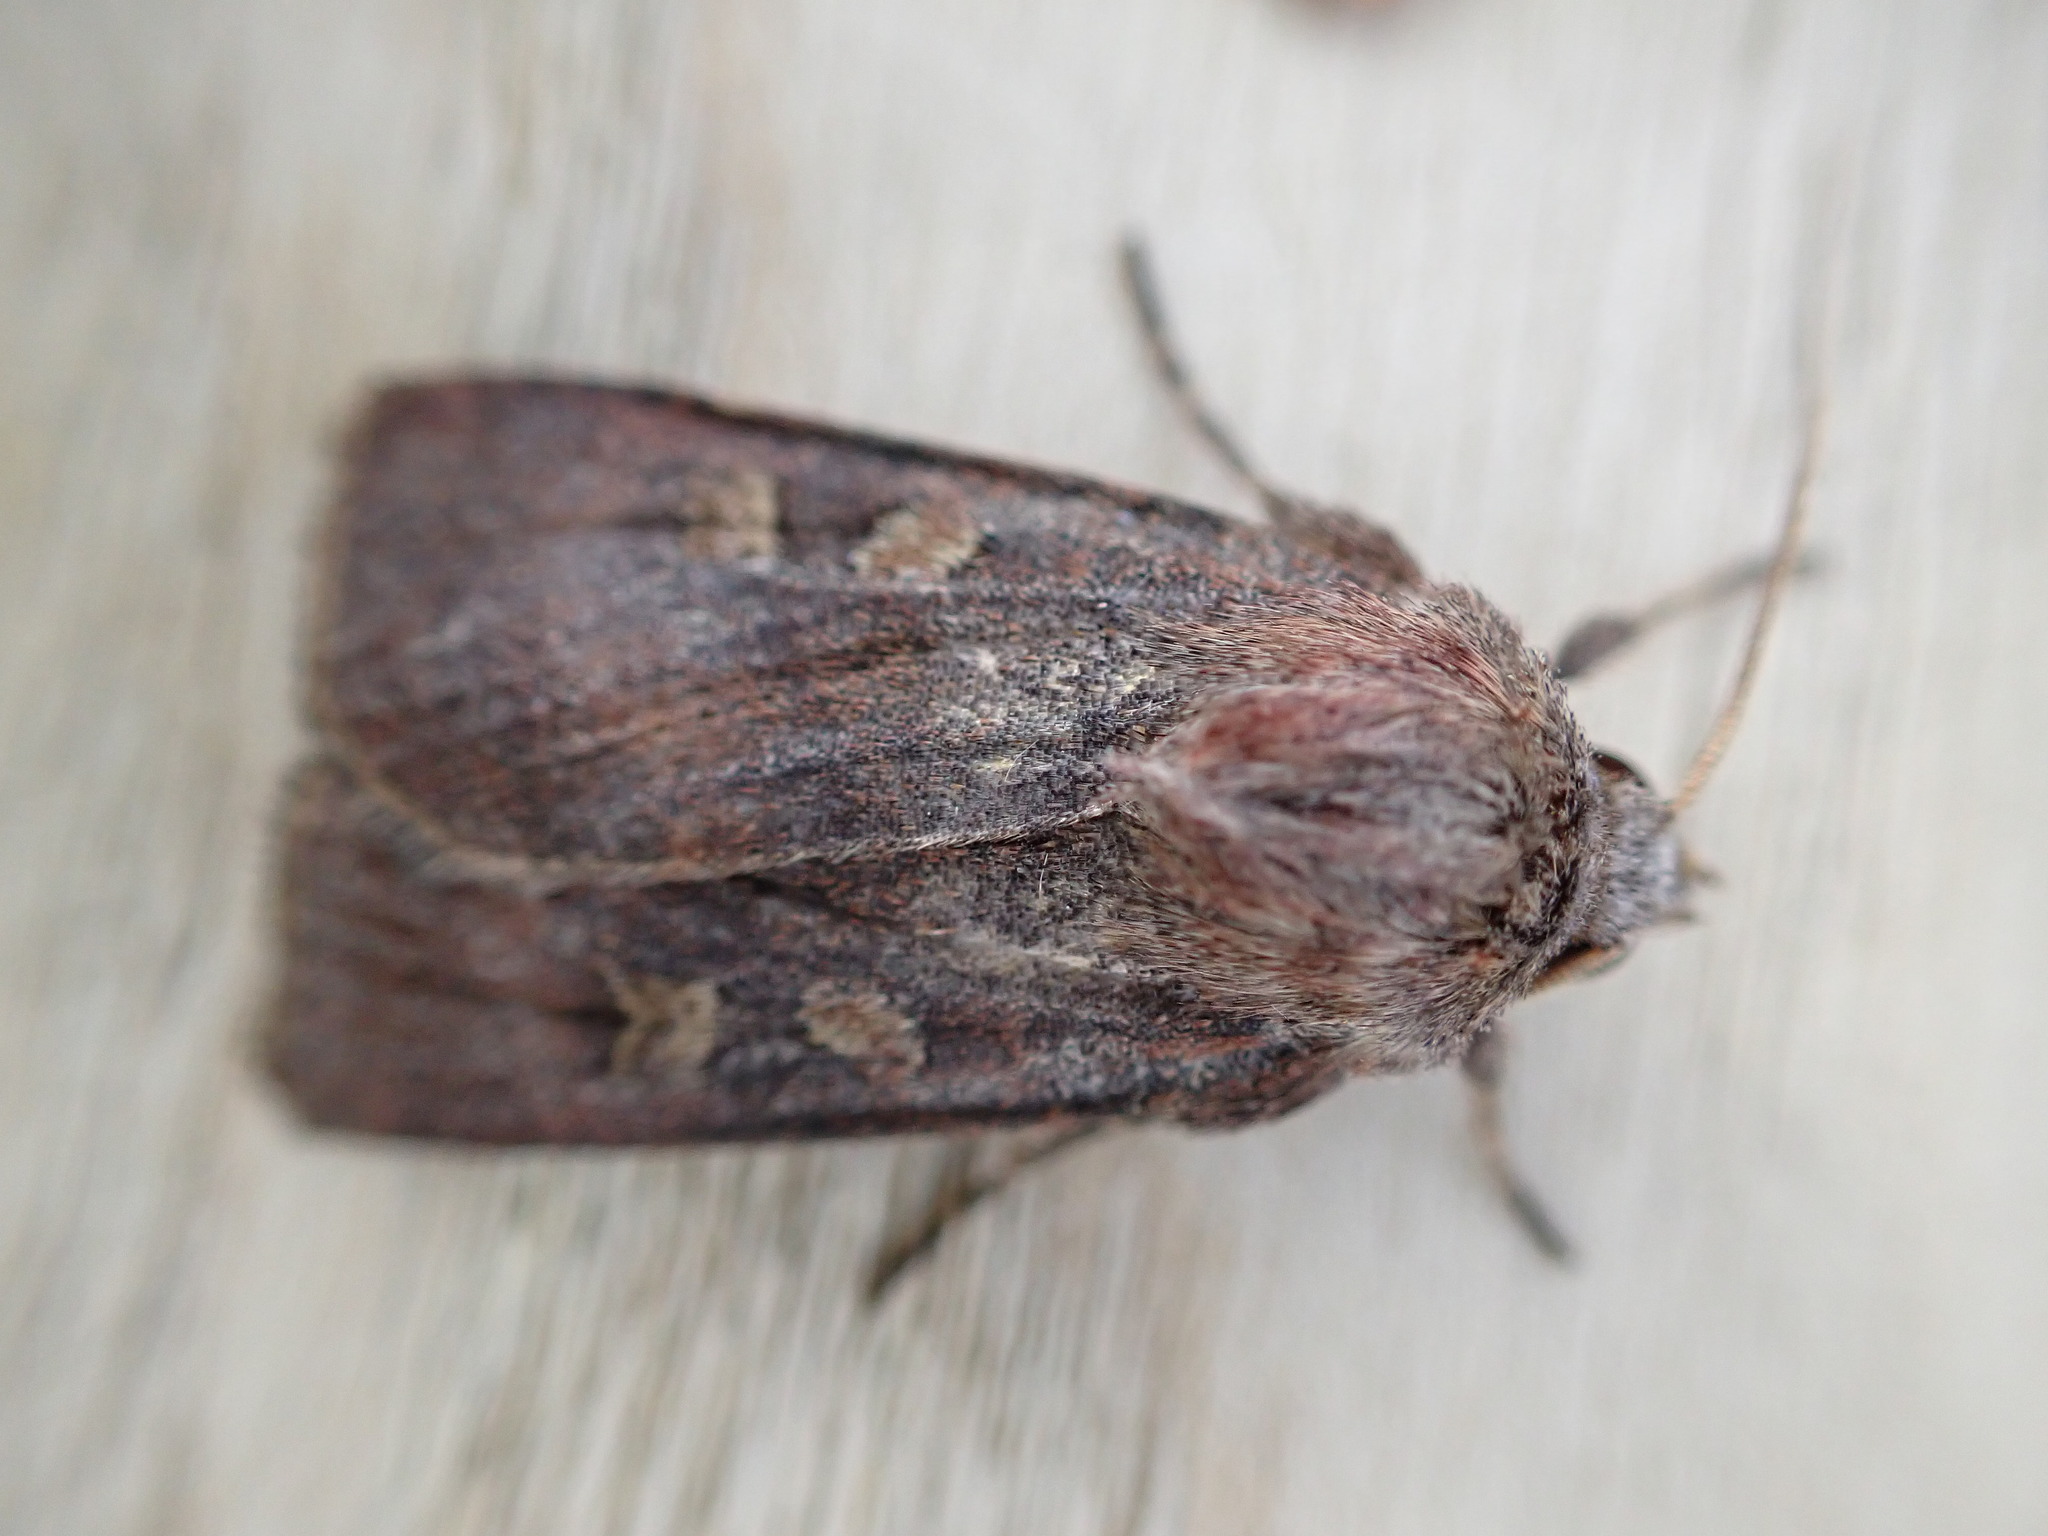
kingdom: Animalia
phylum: Arthropoda
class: Insecta
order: Lepidoptera
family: Noctuidae
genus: Xestia
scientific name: Xestia xanthographa
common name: Square-spot rustic
